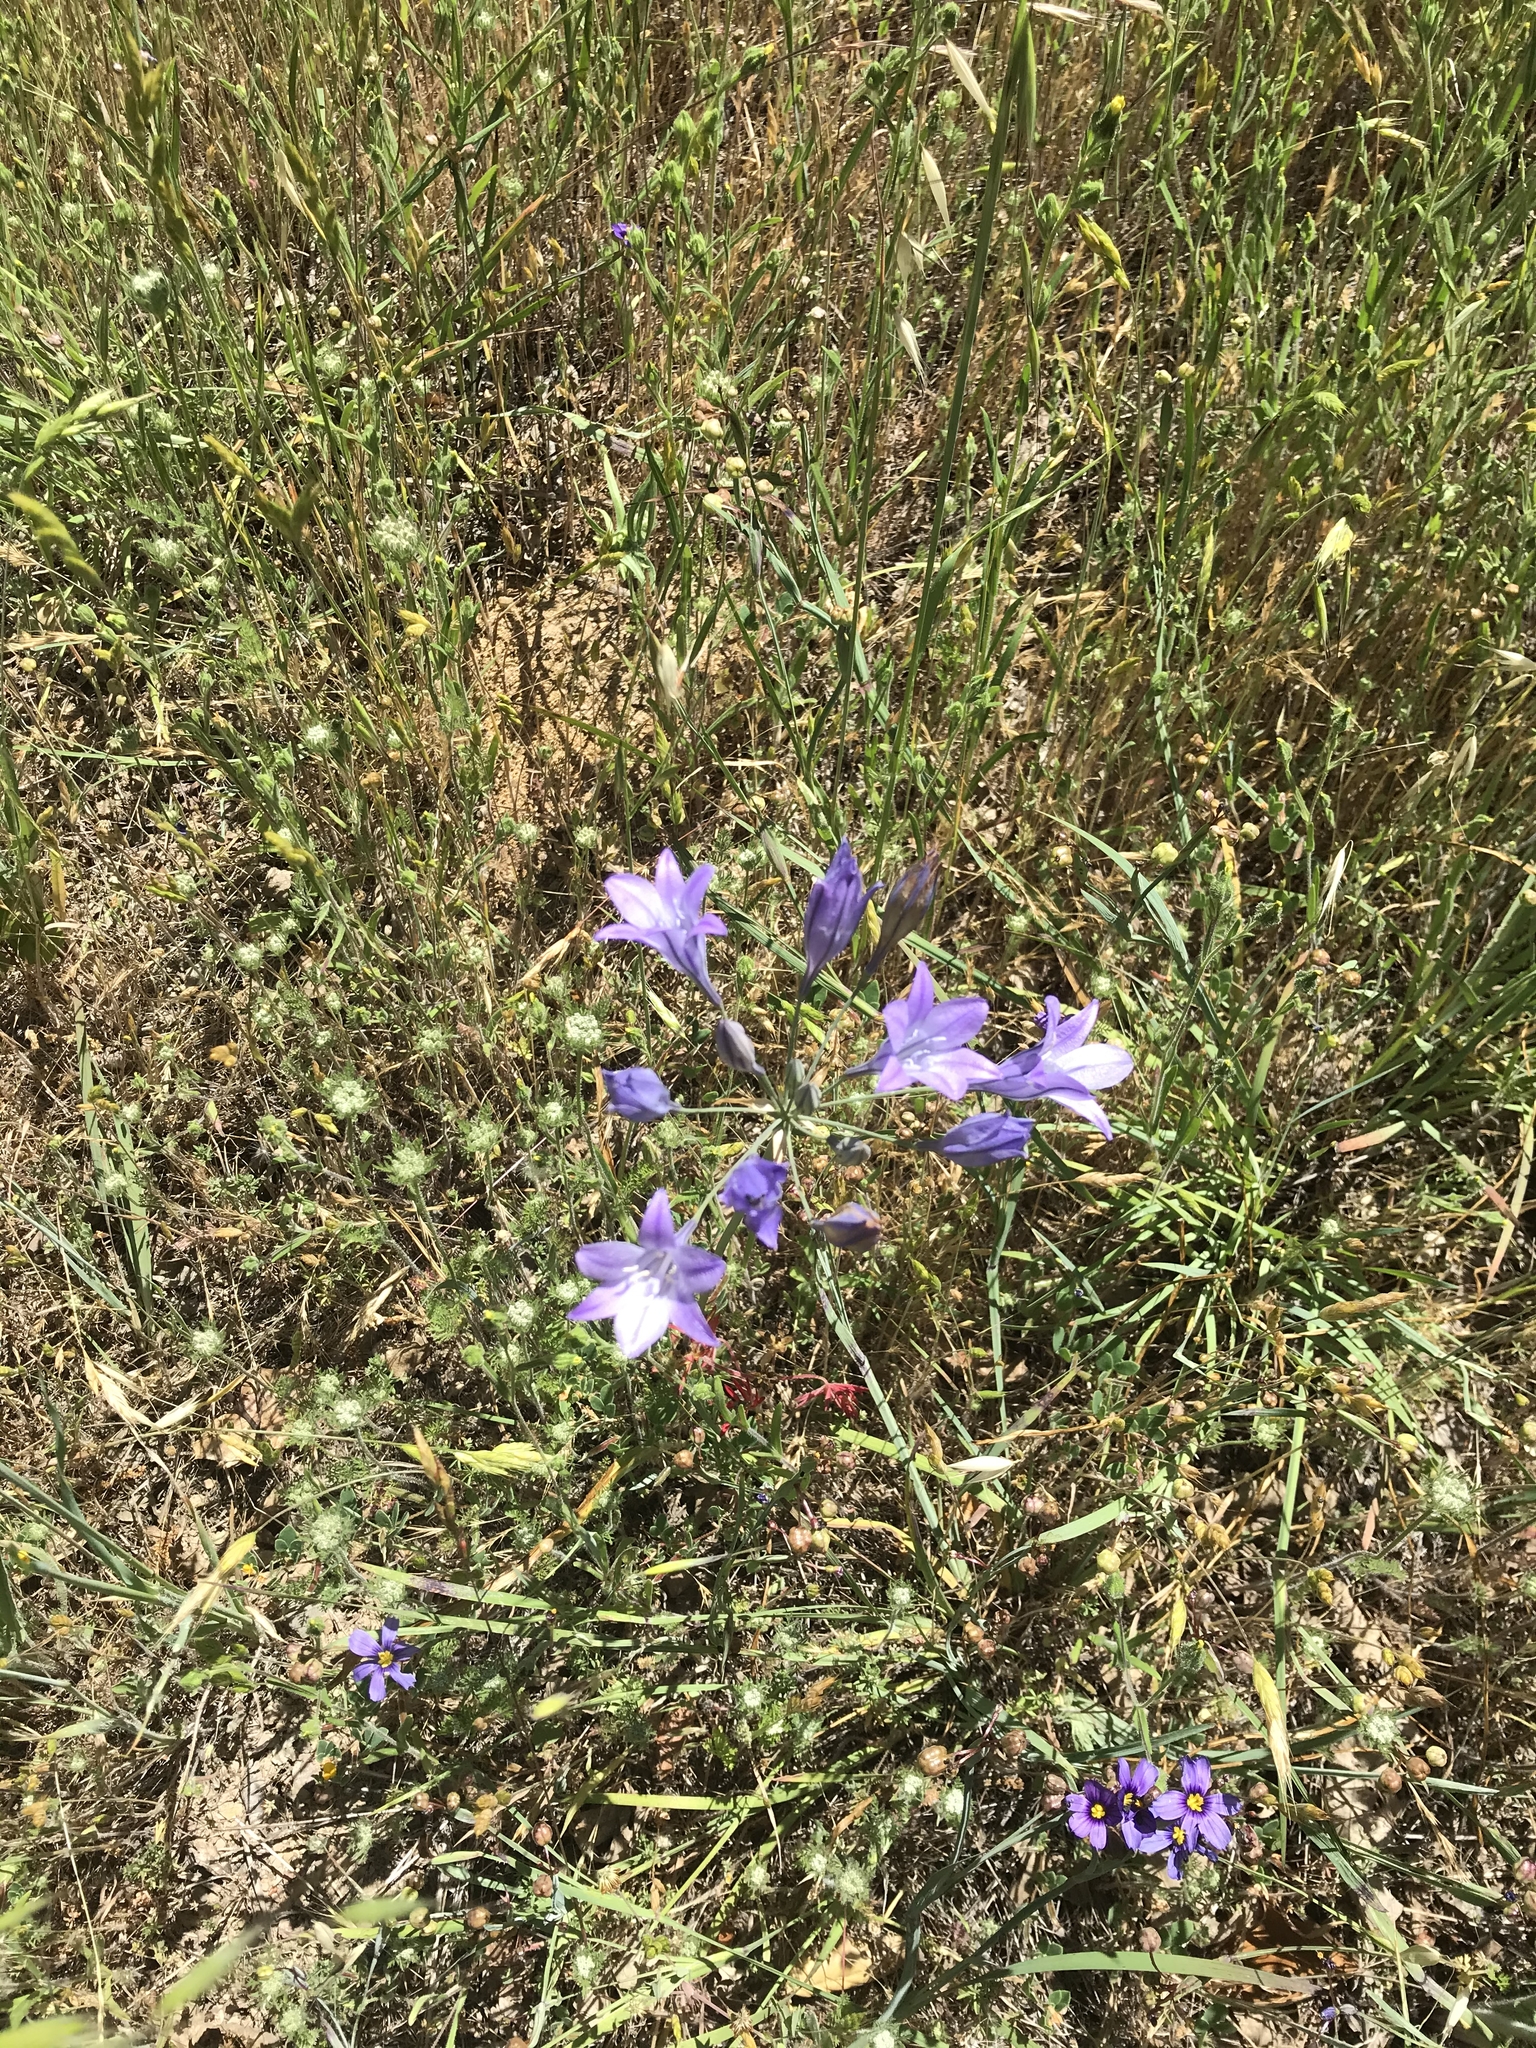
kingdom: Plantae
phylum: Tracheophyta
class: Liliopsida
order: Asparagales
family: Asparagaceae
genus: Triteleia
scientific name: Triteleia laxa
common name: Triplet-lily
